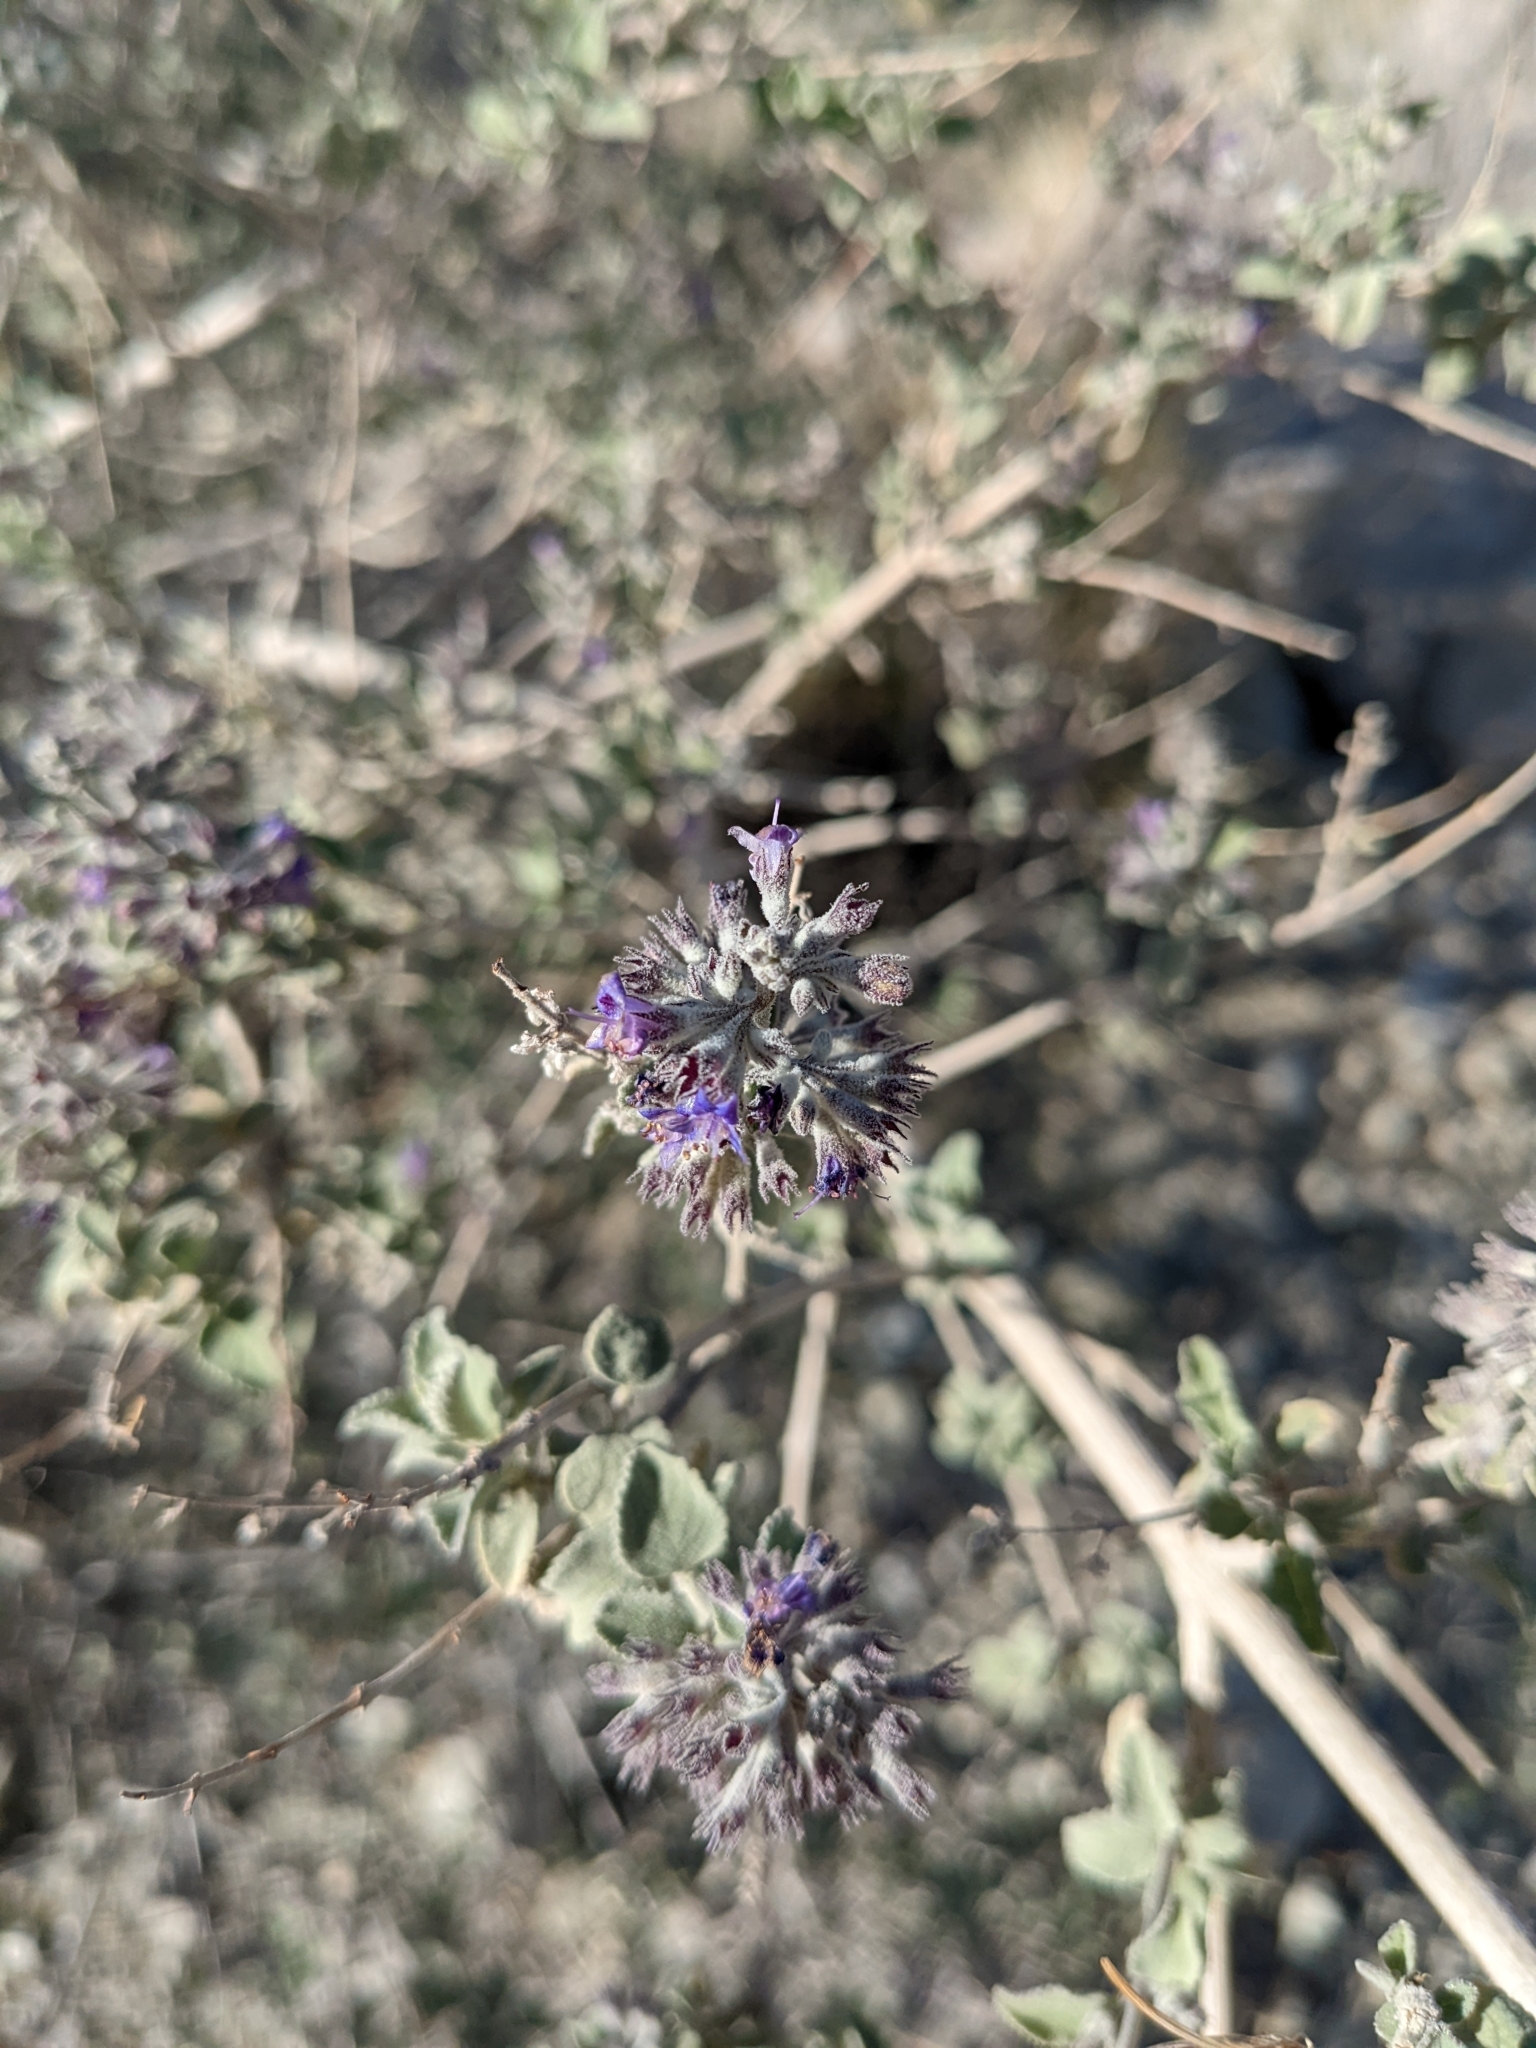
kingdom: Plantae
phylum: Tracheophyta
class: Magnoliopsida
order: Lamiales
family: Lamiaceae
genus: Condea
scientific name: Condea emoryi
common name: Chia
